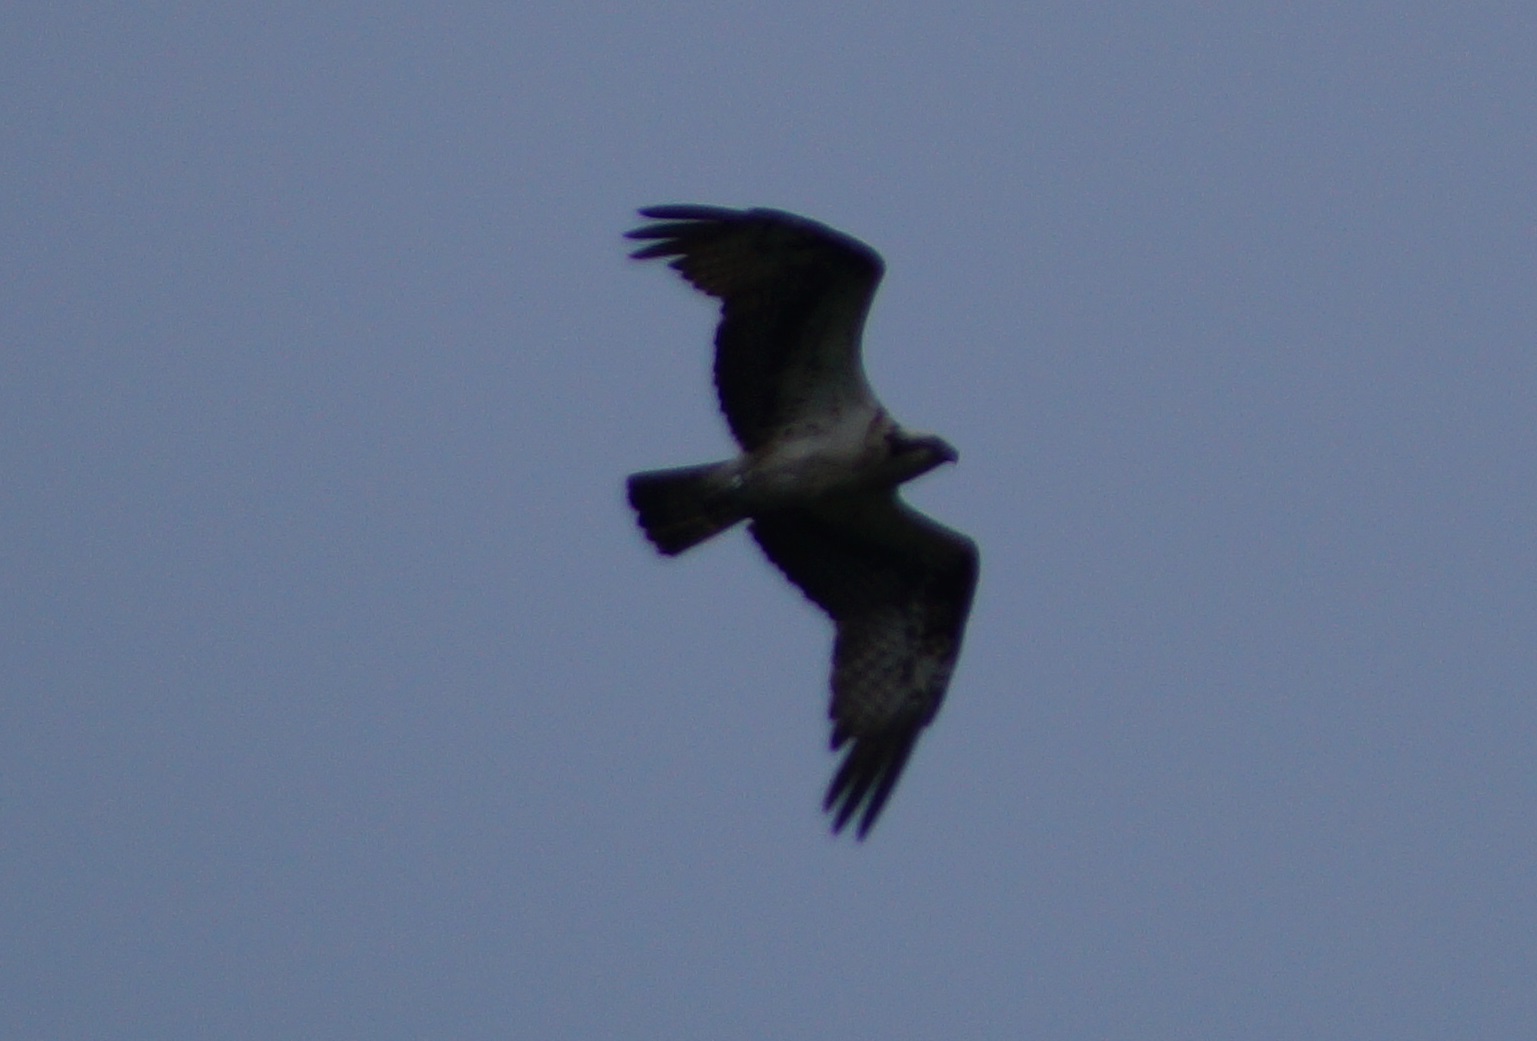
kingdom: Animalia
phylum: Chordata
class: Aves
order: Accipitriformes
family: Pandionidae
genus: Pandion
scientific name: Pandion haliaetus
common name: Osprey
